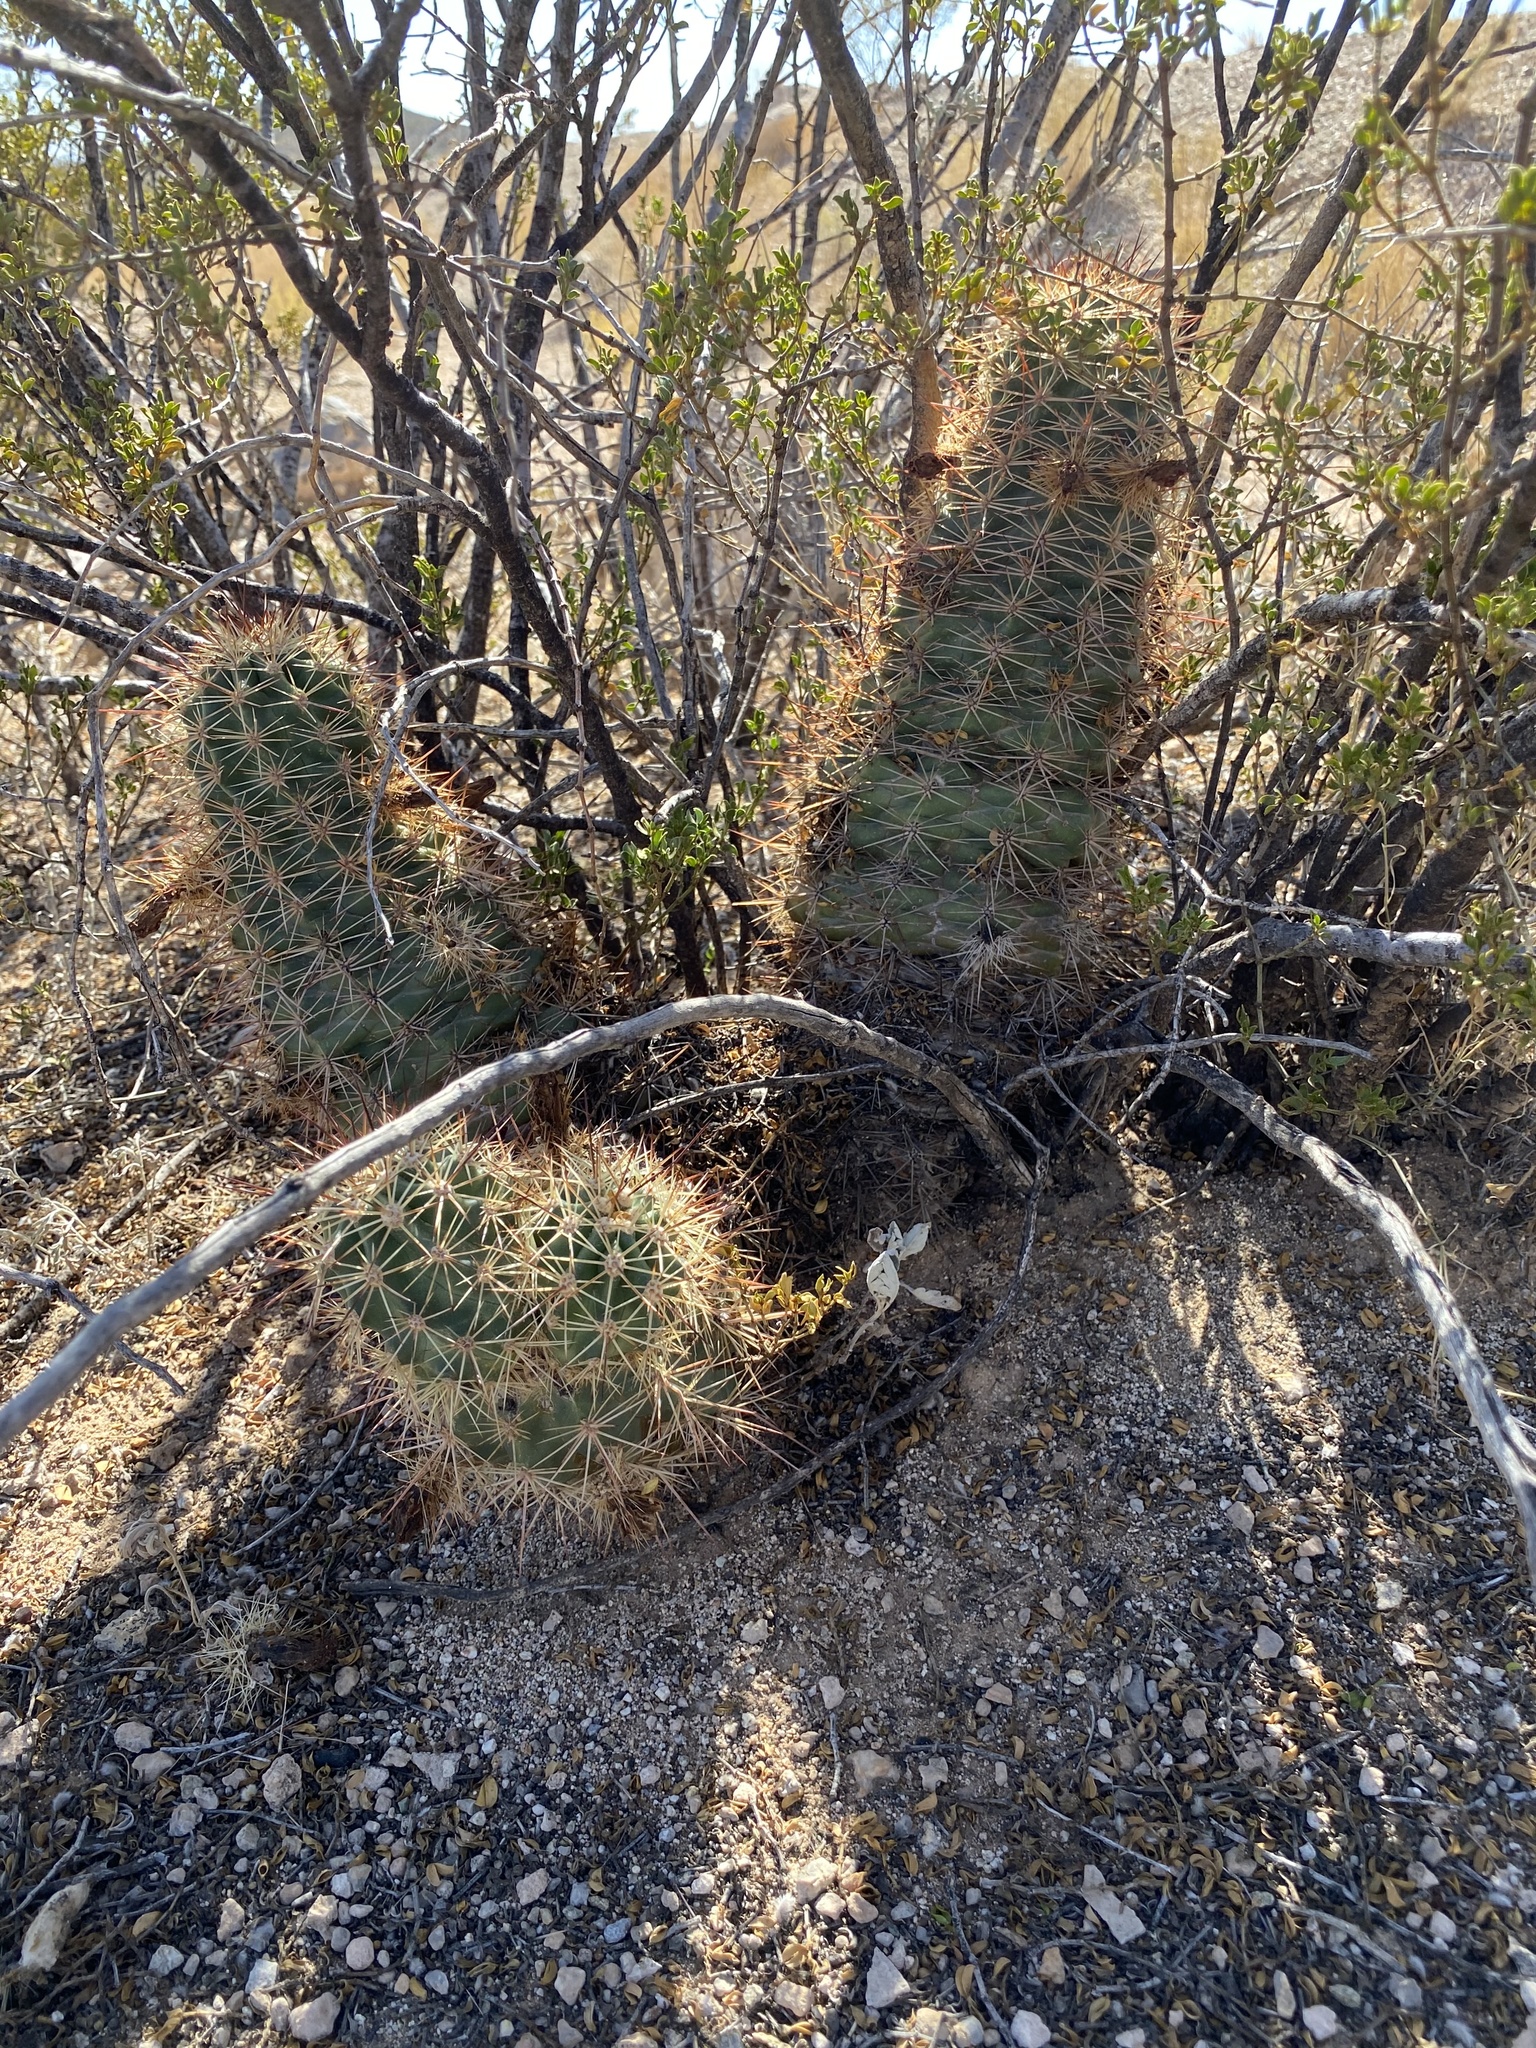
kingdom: Plantae
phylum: Tracheophyta
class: Magnoliopsida
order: Caryophyllales
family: Cactaceae
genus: Echinocereus
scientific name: Echinocereus coccineus
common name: Scarlet hedgehog cactus
